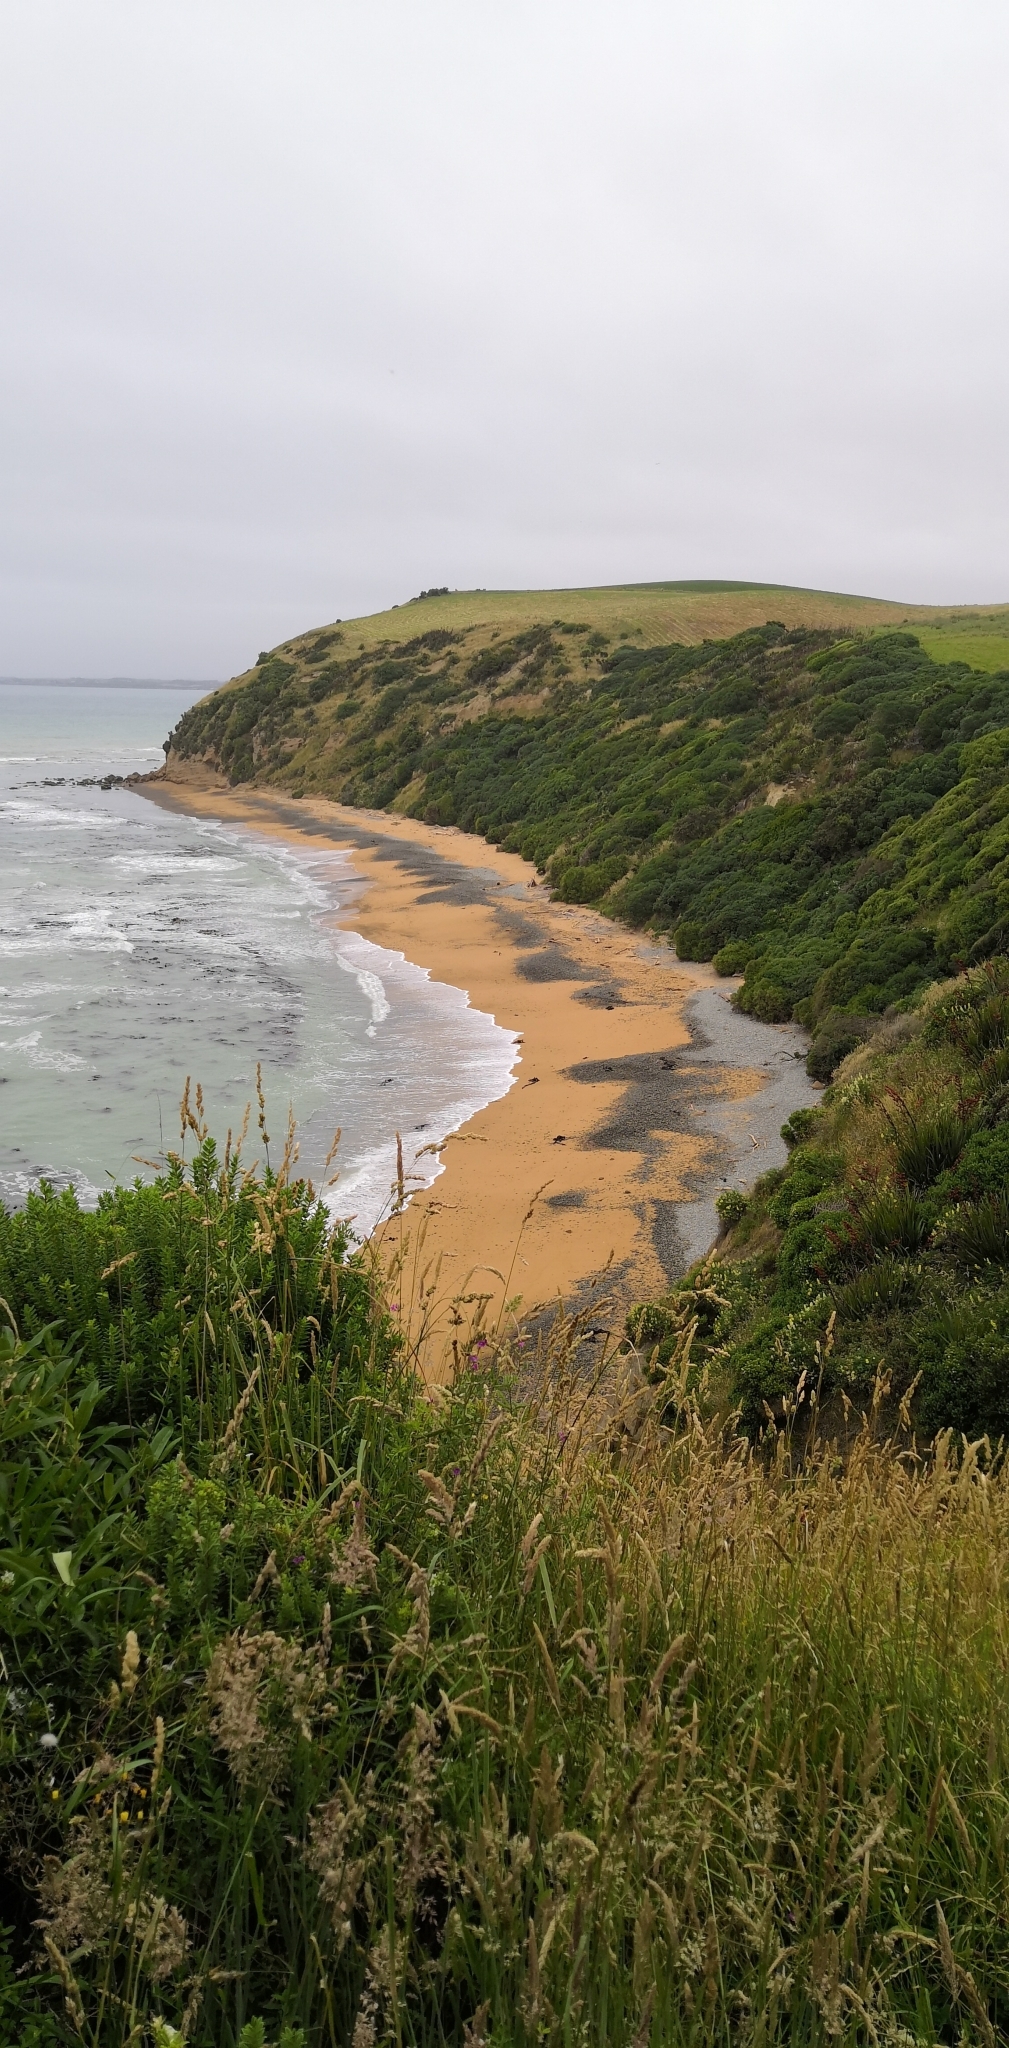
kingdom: Animalia
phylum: Chordata
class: Aves
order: Sphenisciformes
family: Spheniscidae
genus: Megadyptes
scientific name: Megadyptes antipodes
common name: Yellow-eyed penguin
